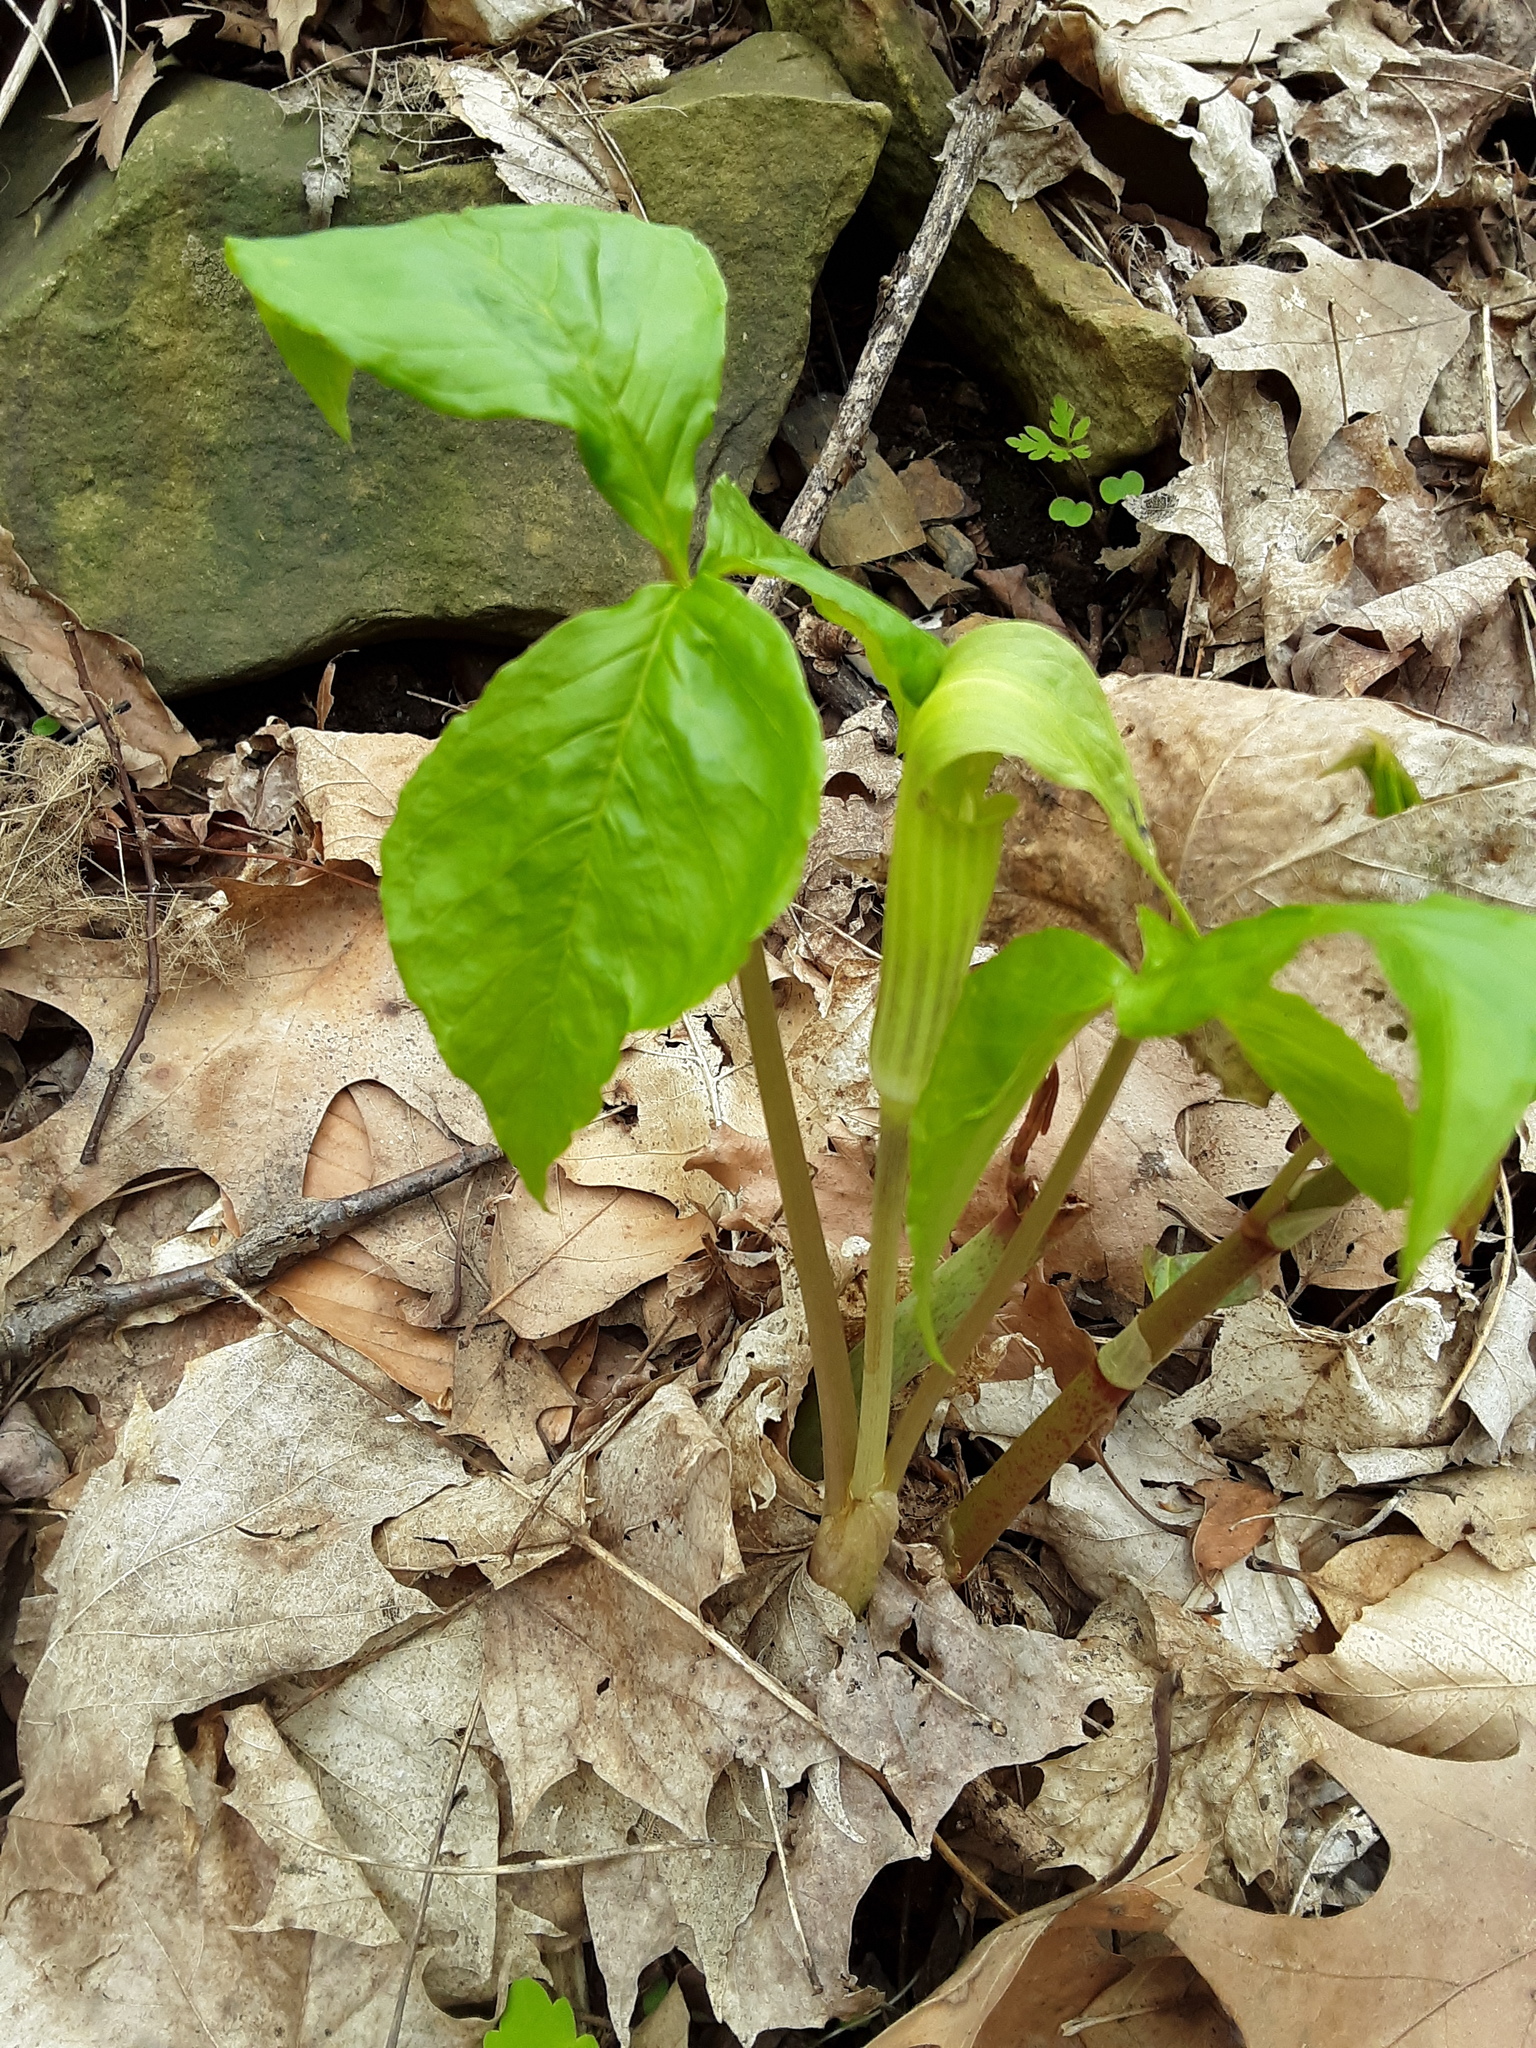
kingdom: Plantae
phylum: Tracheophyta
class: Liliopsida
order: Alismatales
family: Araceae
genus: Arisaema
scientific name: Arisaema triphyllum
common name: Jack-in-the-pulpit
